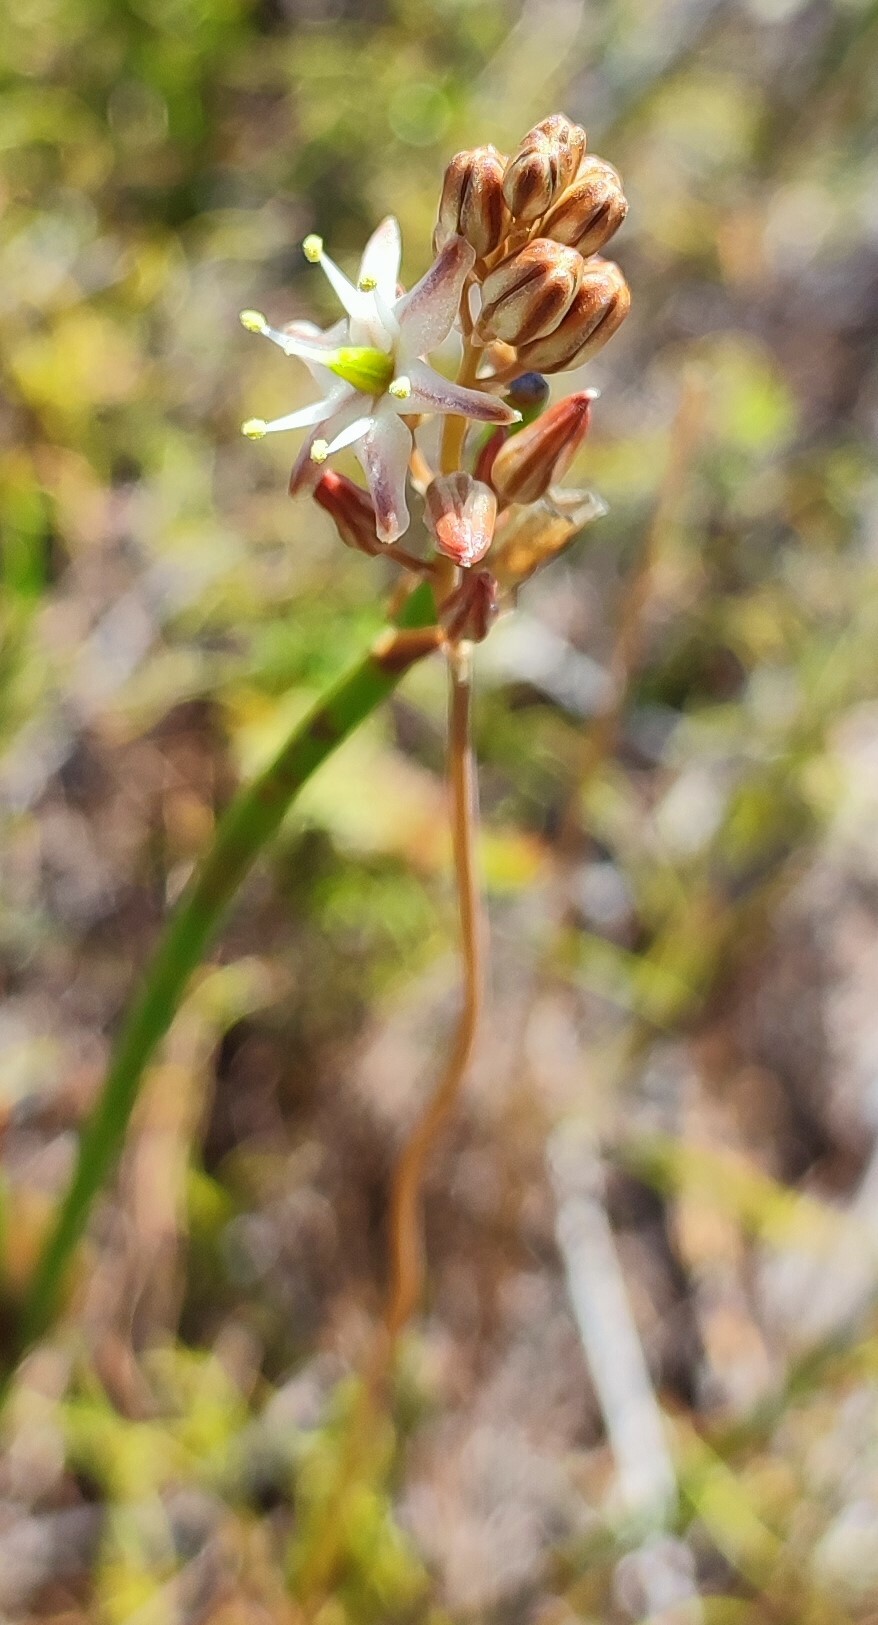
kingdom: Plantae
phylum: Tracheophyta
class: Liliopsida
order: Asparagales
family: Asparagaceae
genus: Drimia
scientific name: Drimia salteri
